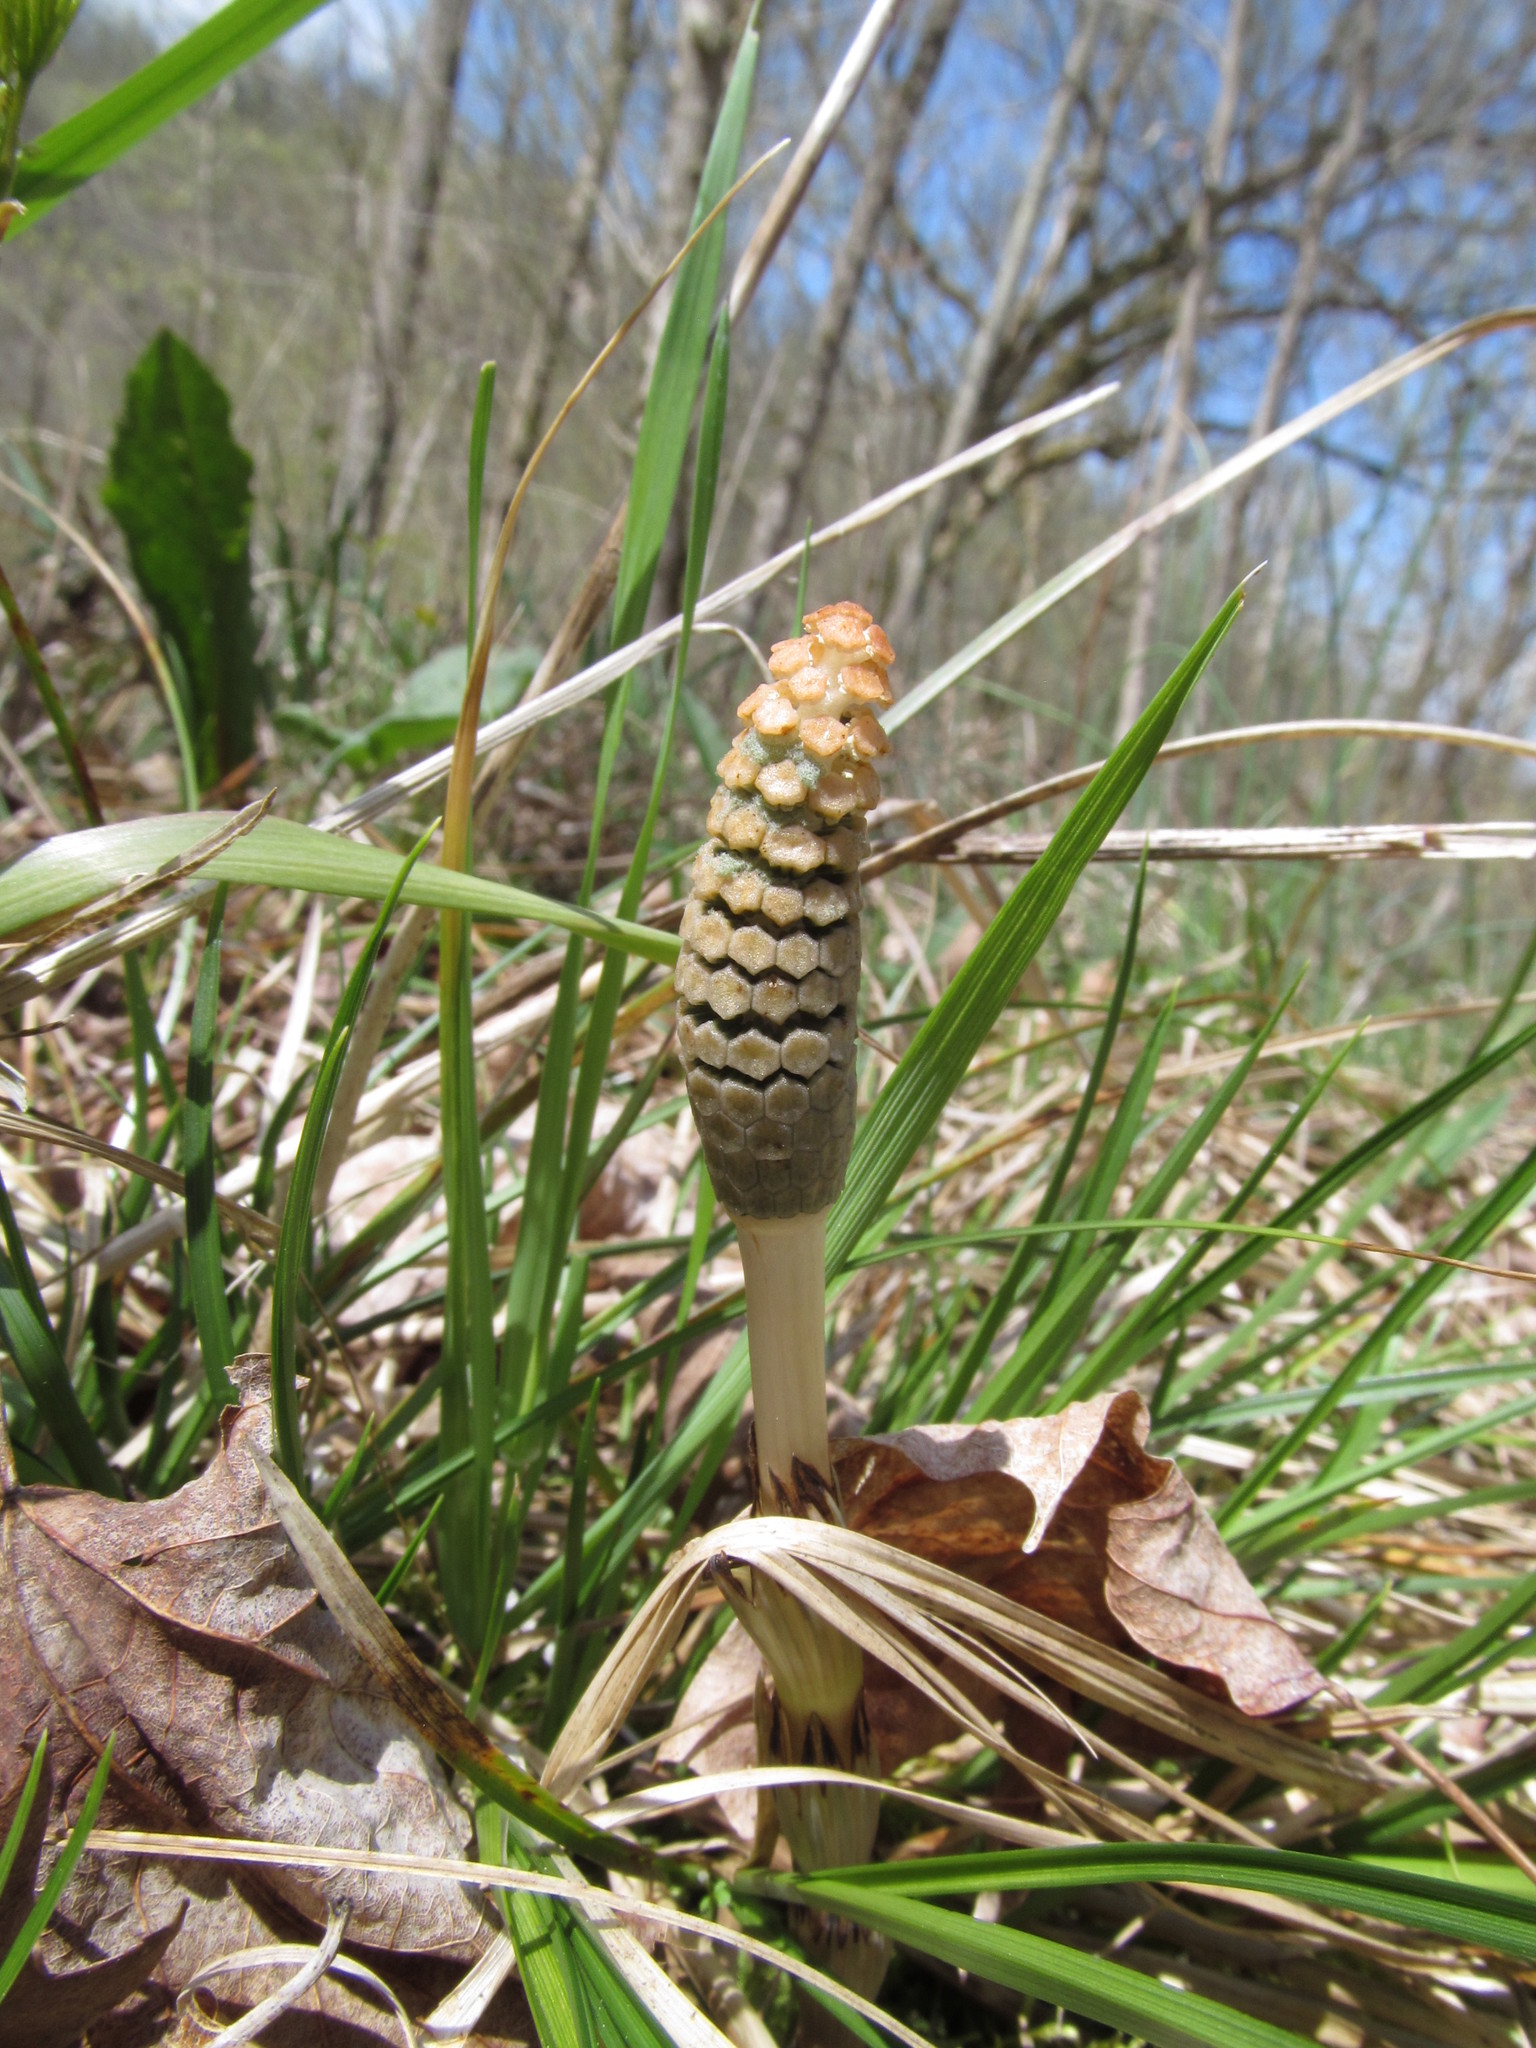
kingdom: Plantae
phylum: Tracheophyta
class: Polypodiopsida
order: Equisetales
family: Equisetaceae
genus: Equisetum
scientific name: Equisetum arvense
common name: Field horsetail
